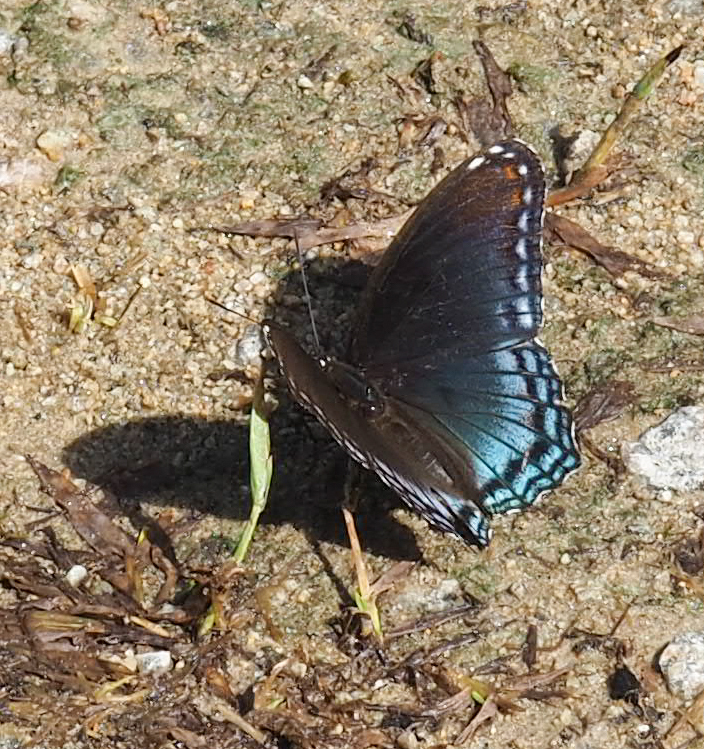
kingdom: Animalia
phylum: Arthropoda
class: Insecta
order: Lepidoptera
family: Nymphalidae
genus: Limenitis
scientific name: Limenitis astyanax
